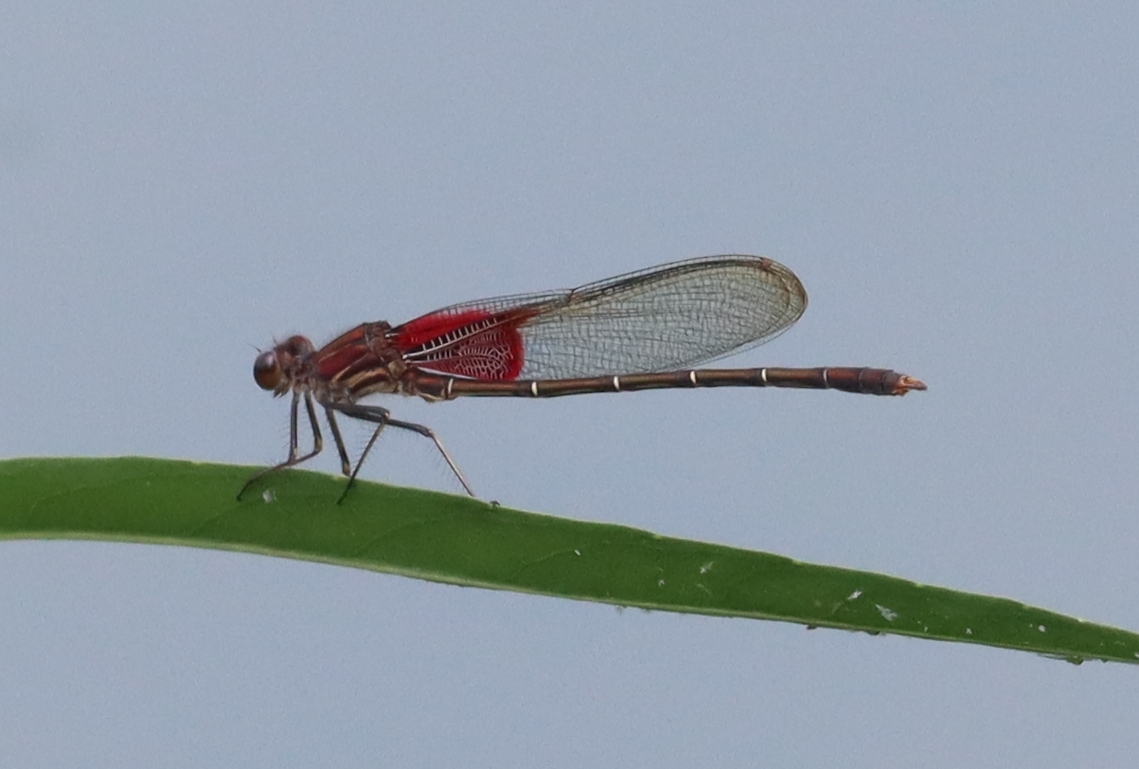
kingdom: Animalia
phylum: Arthropoda
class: Insecta
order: Odonata
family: Calopterygidae
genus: Hetaerina
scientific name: Hetaerina americana
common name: American rubyspot
